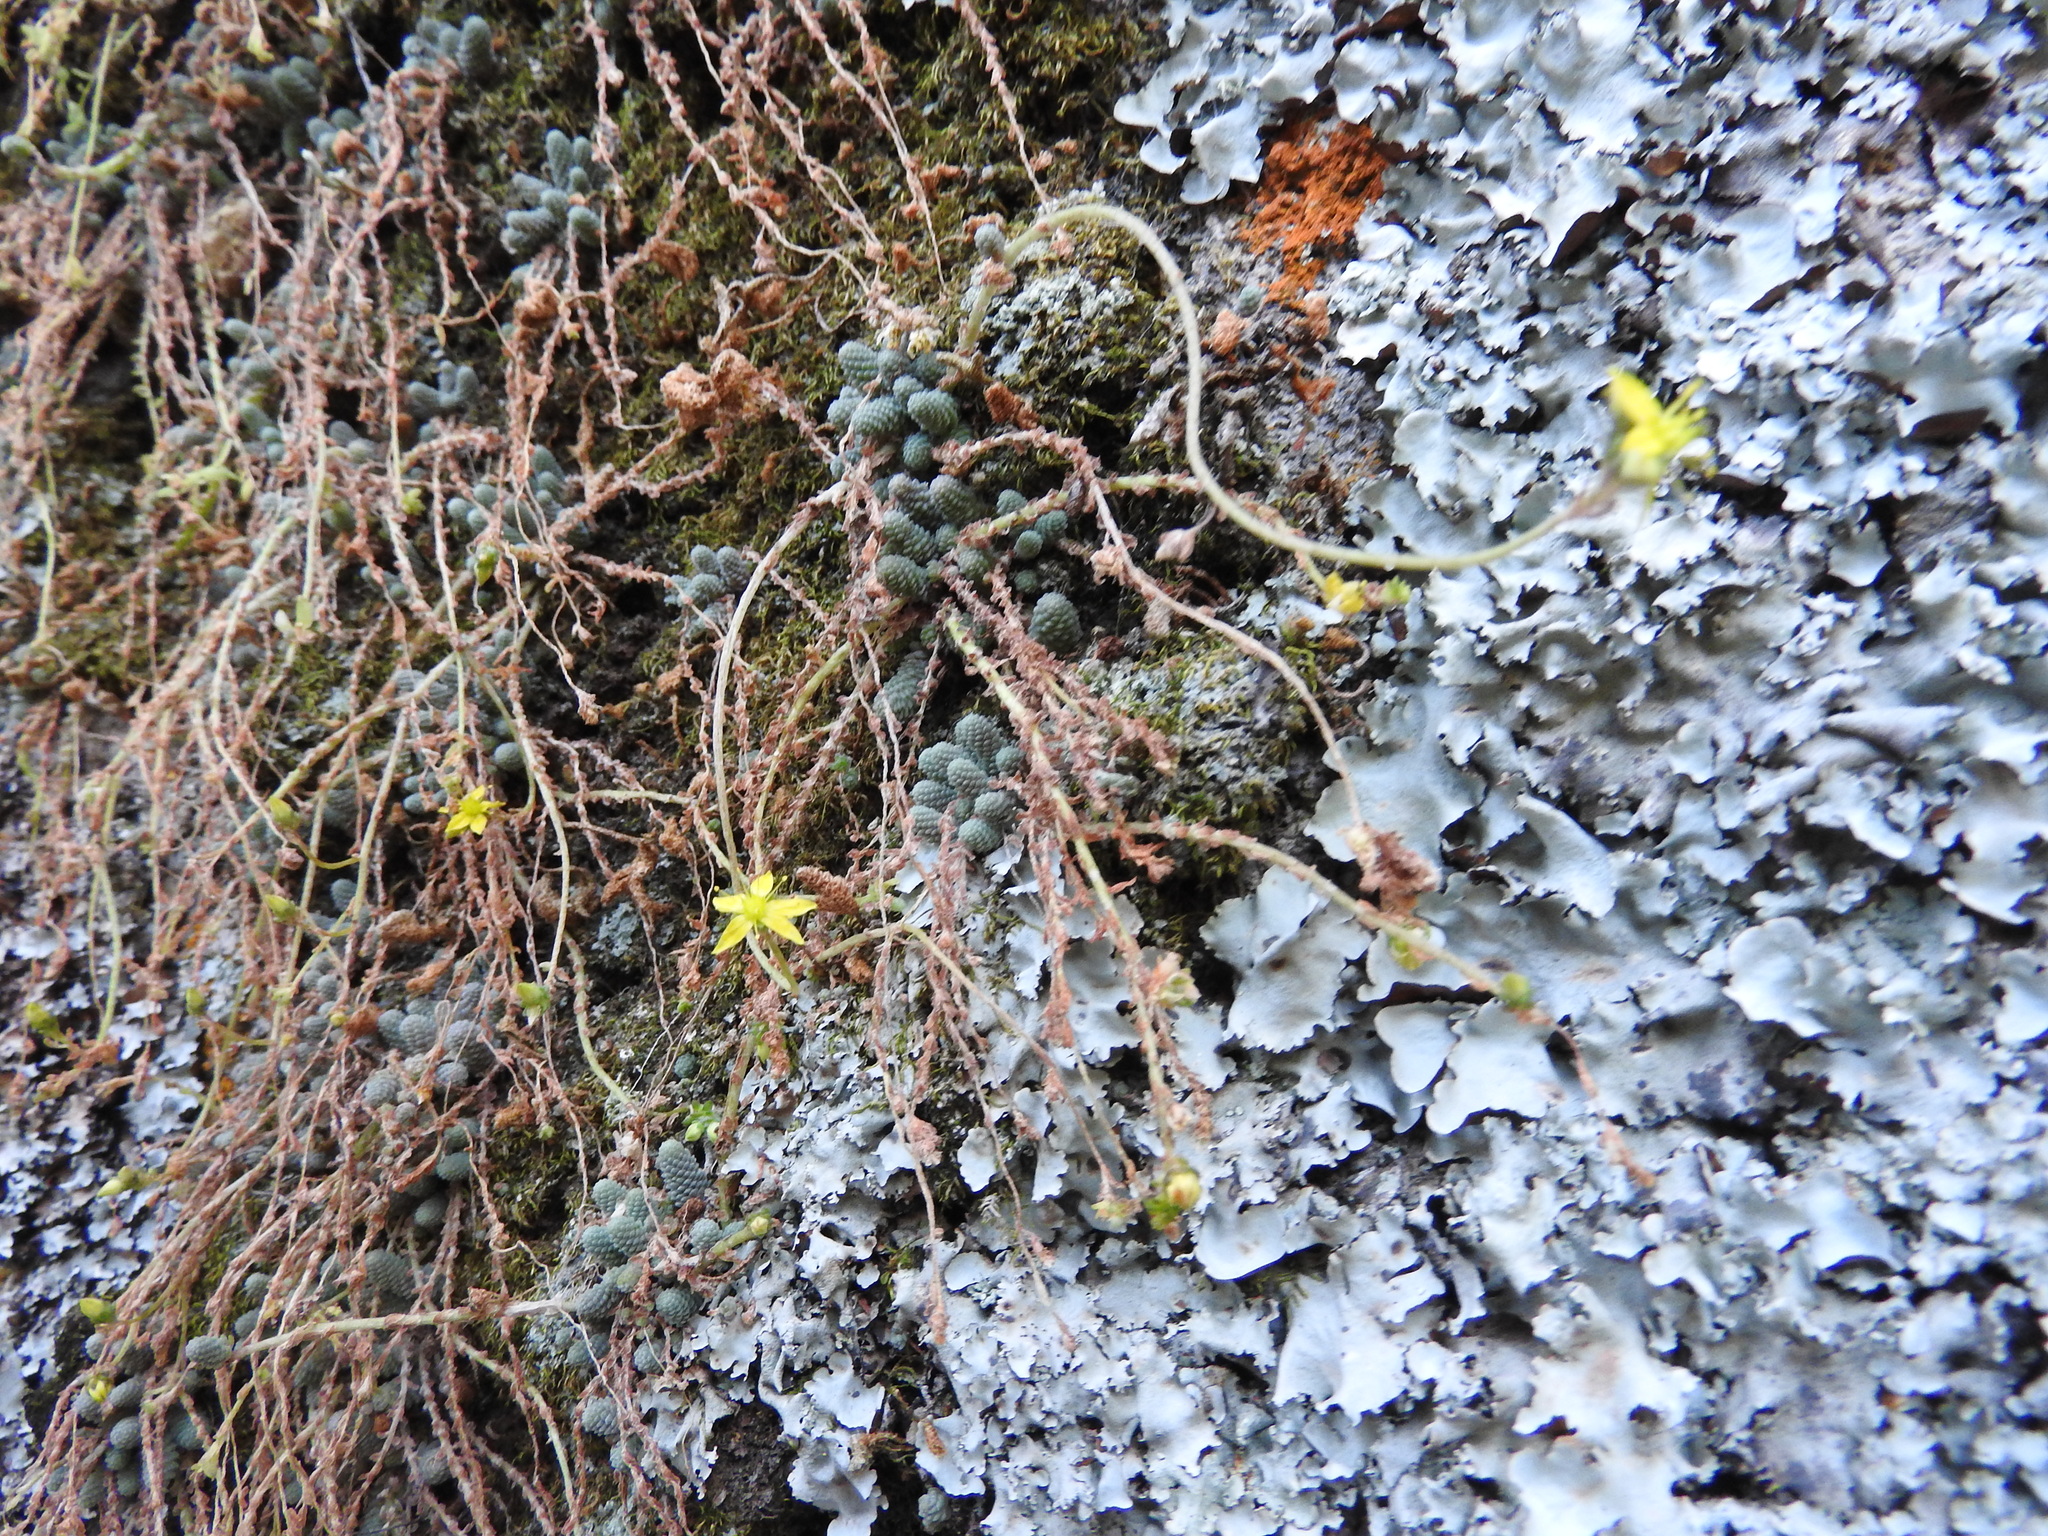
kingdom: Plantae
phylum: Tracheophyta
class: Magnoliopsida
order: Saxifragales
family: Crassulaceae
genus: Sedum
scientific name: Sedum greggii
